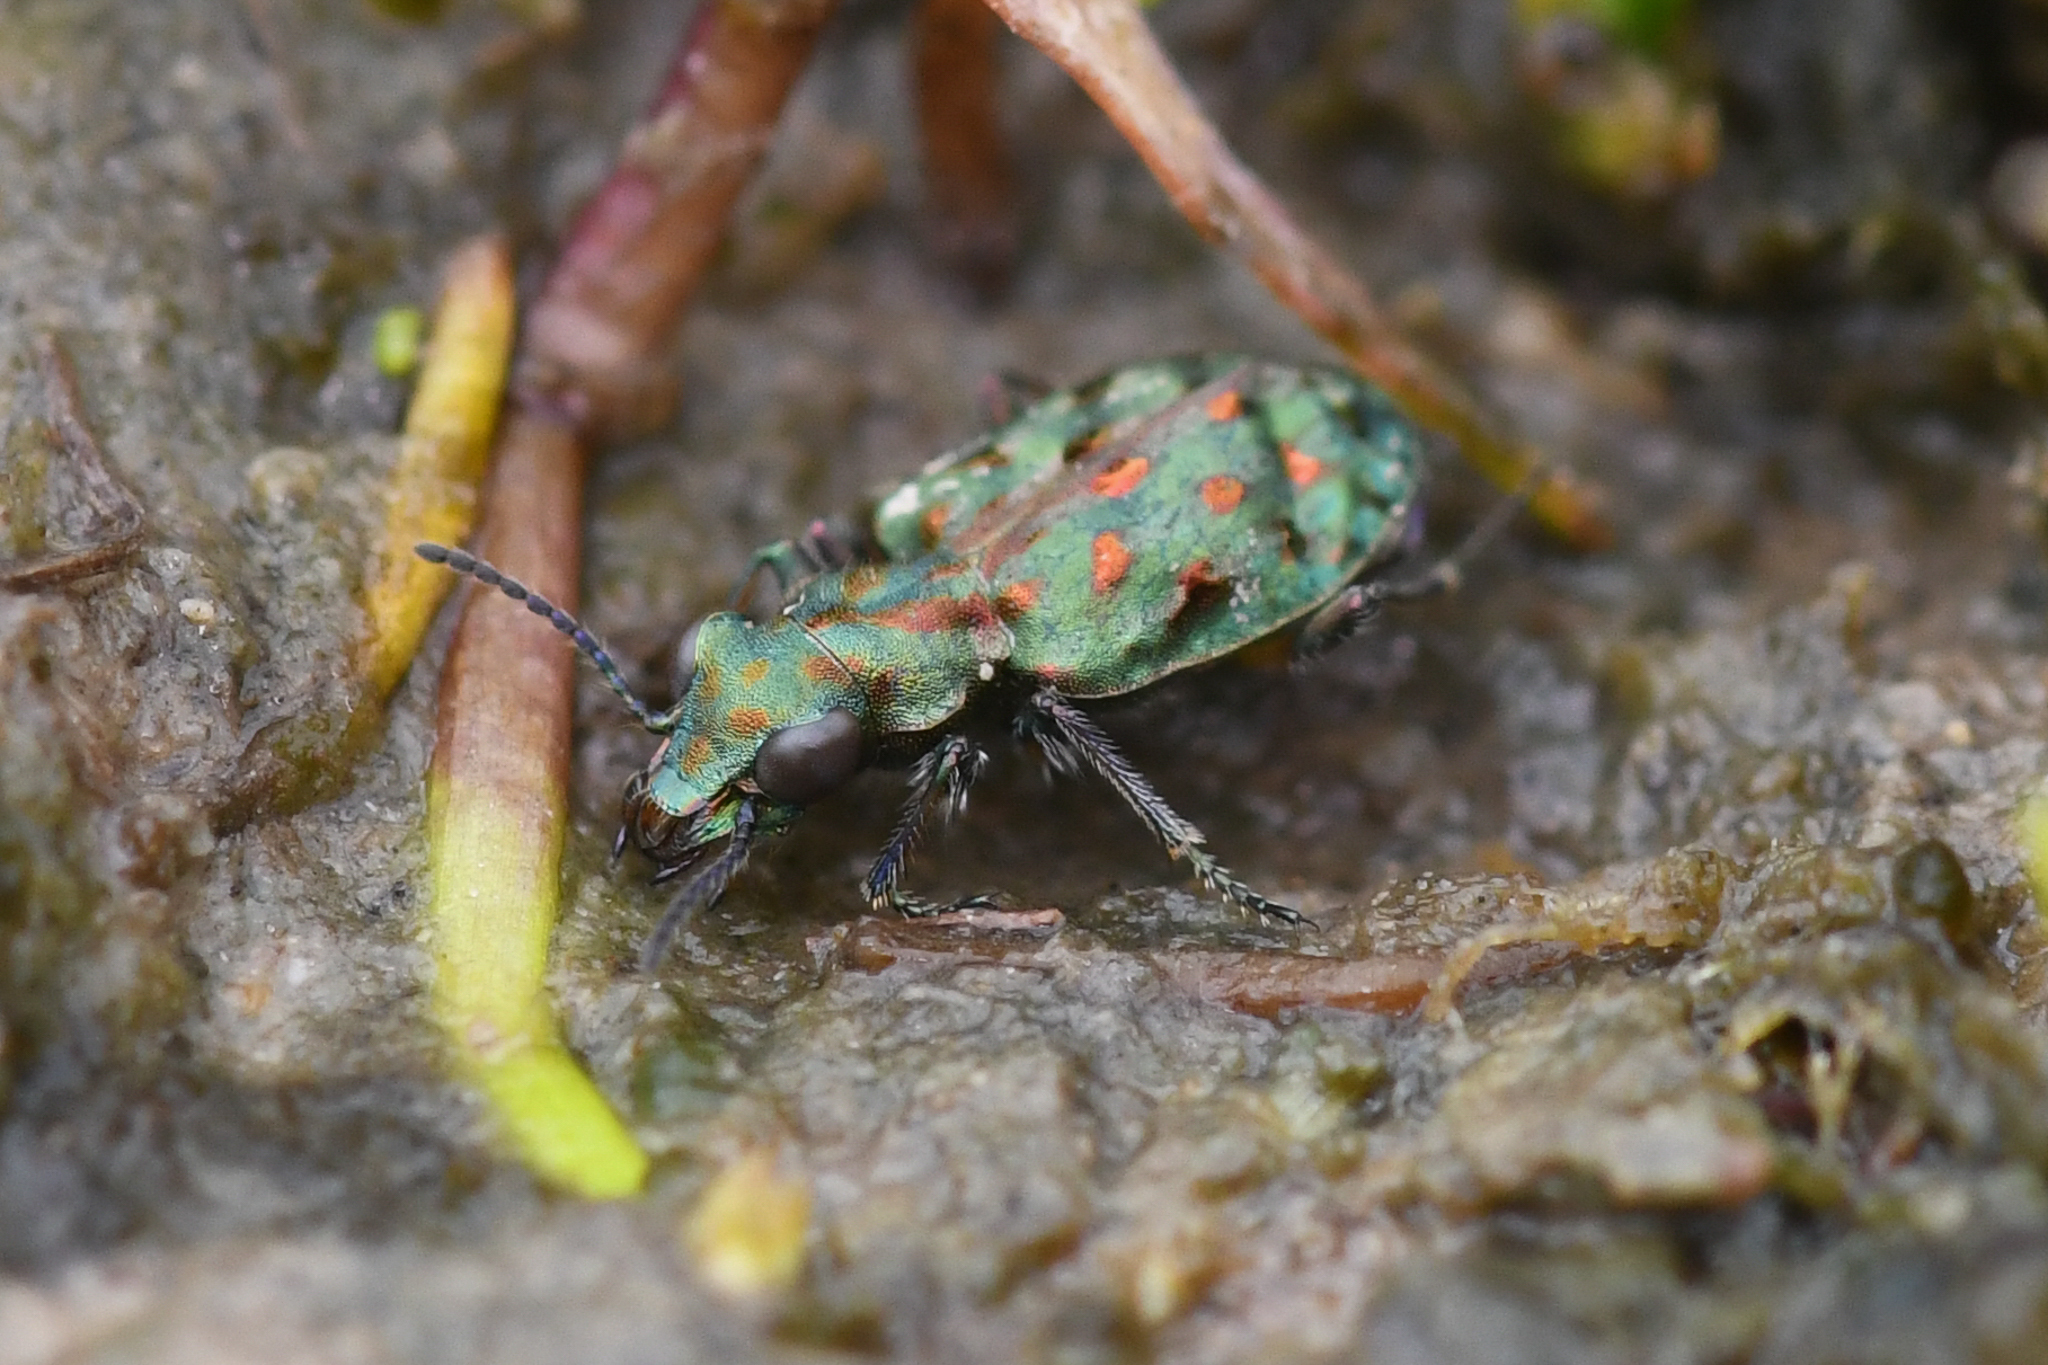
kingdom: Animalia
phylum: Arthropoda
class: Insecta
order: Coleoptera
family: Carabidae
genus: Elaphrus
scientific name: Elaphrus viridis
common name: Delta green ground beetle
